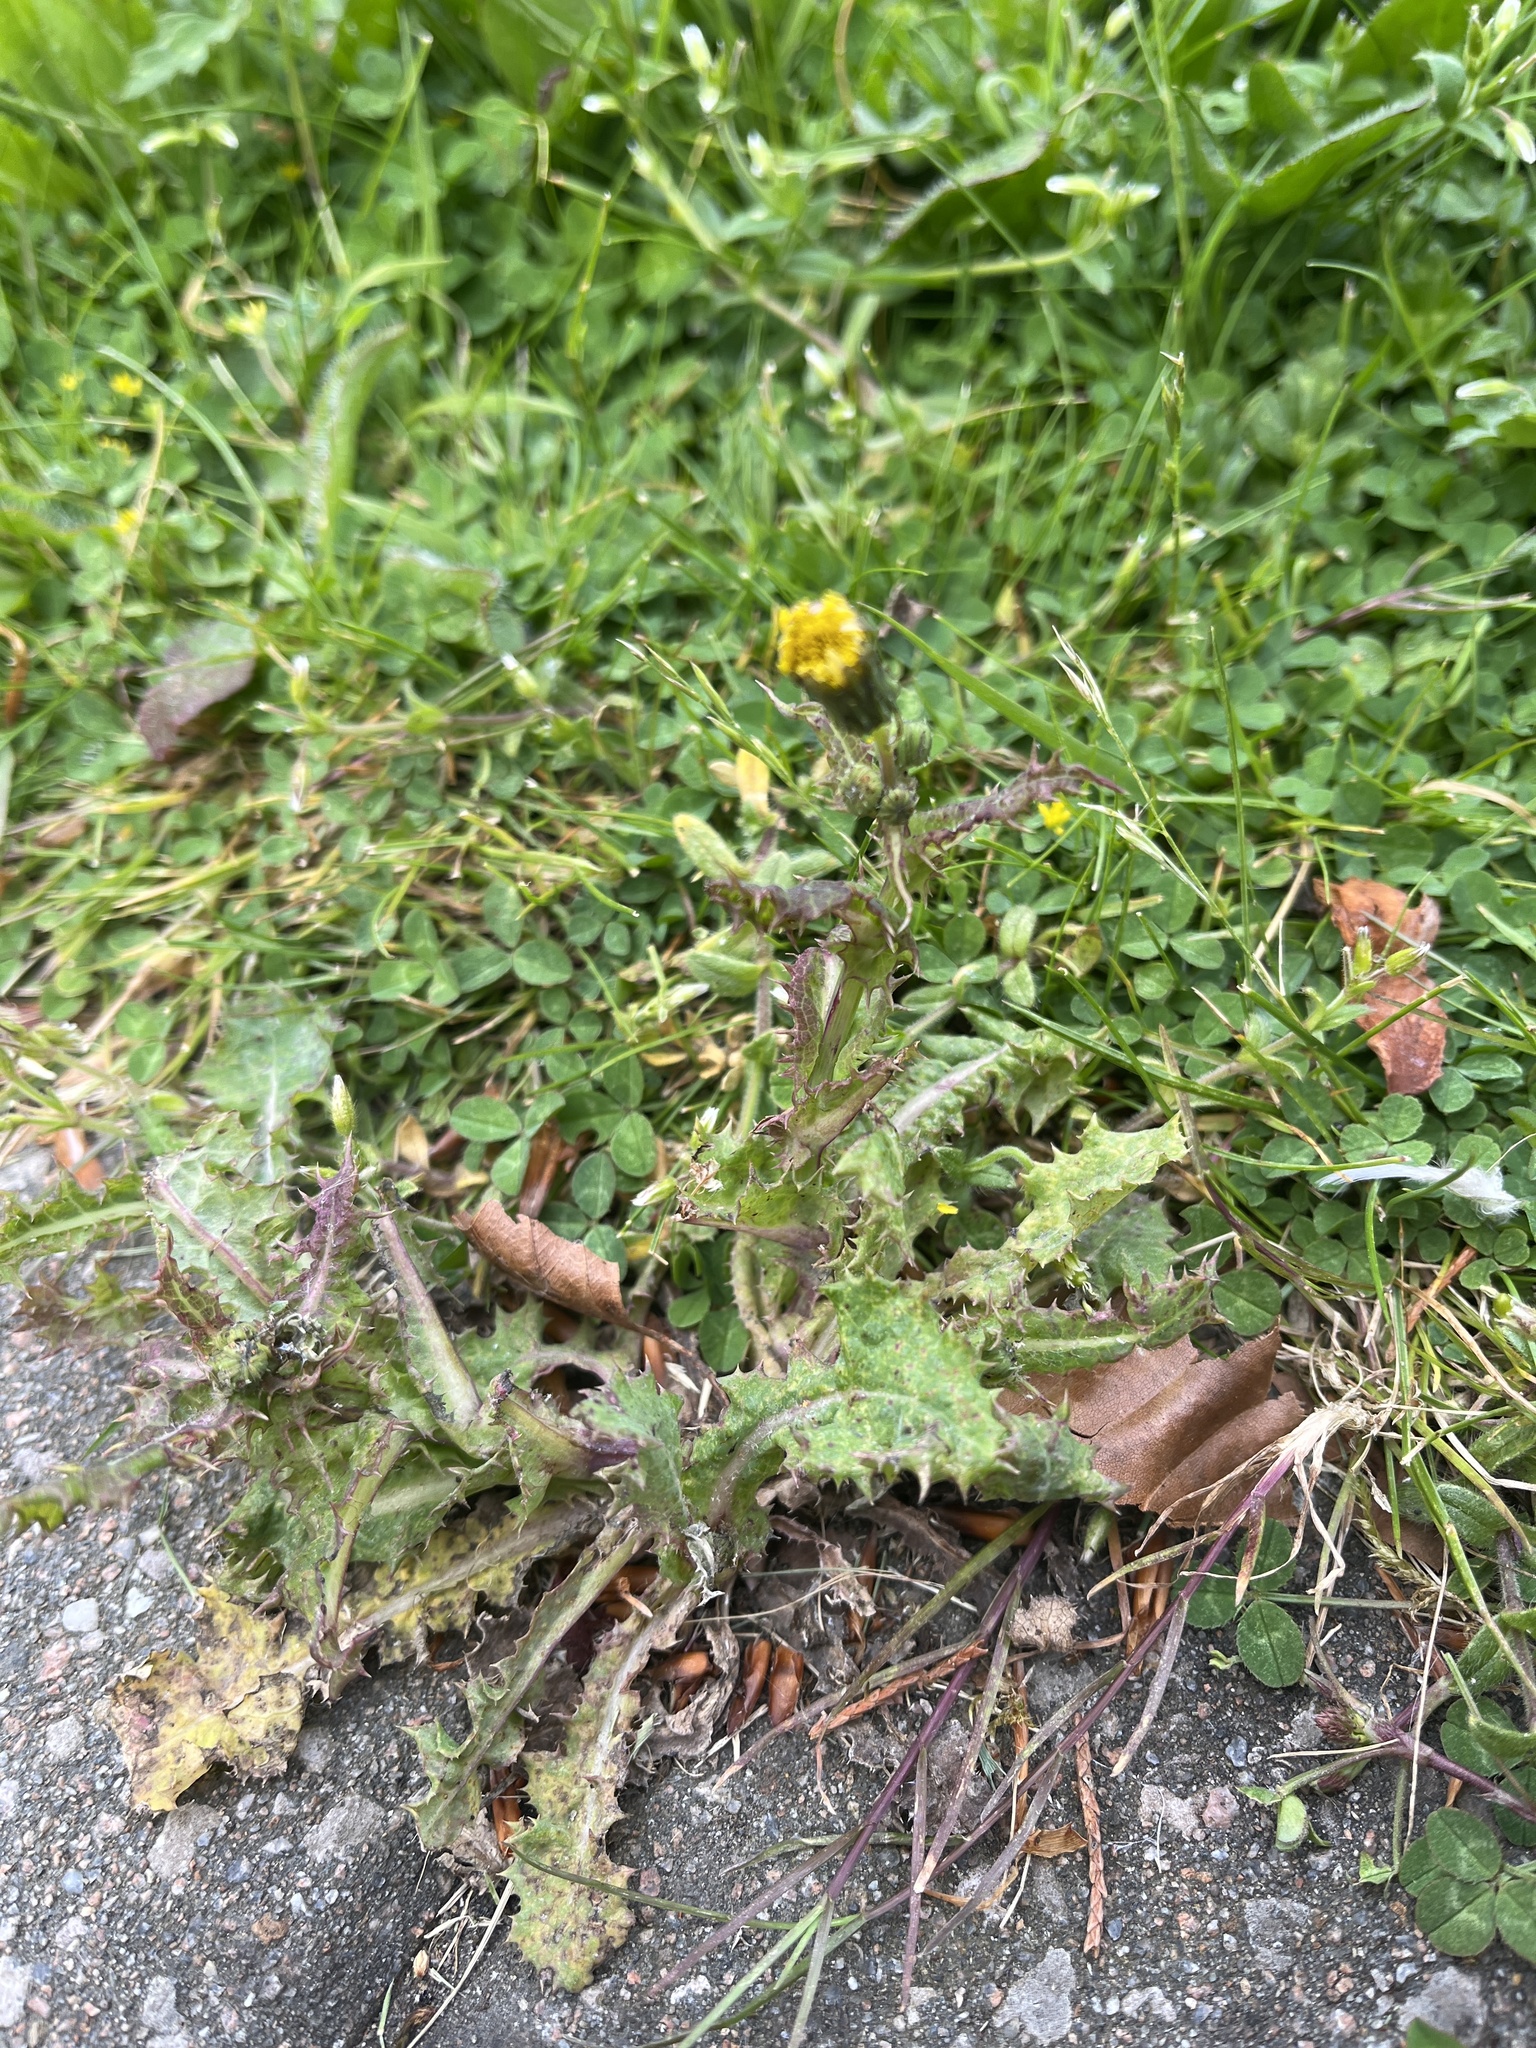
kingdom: Plantae
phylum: Tracheophyta
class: Magnoliopsida
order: Asterales
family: Asteraceae
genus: Sonchus
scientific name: Sonchus asper
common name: Prickly sow-thistle
